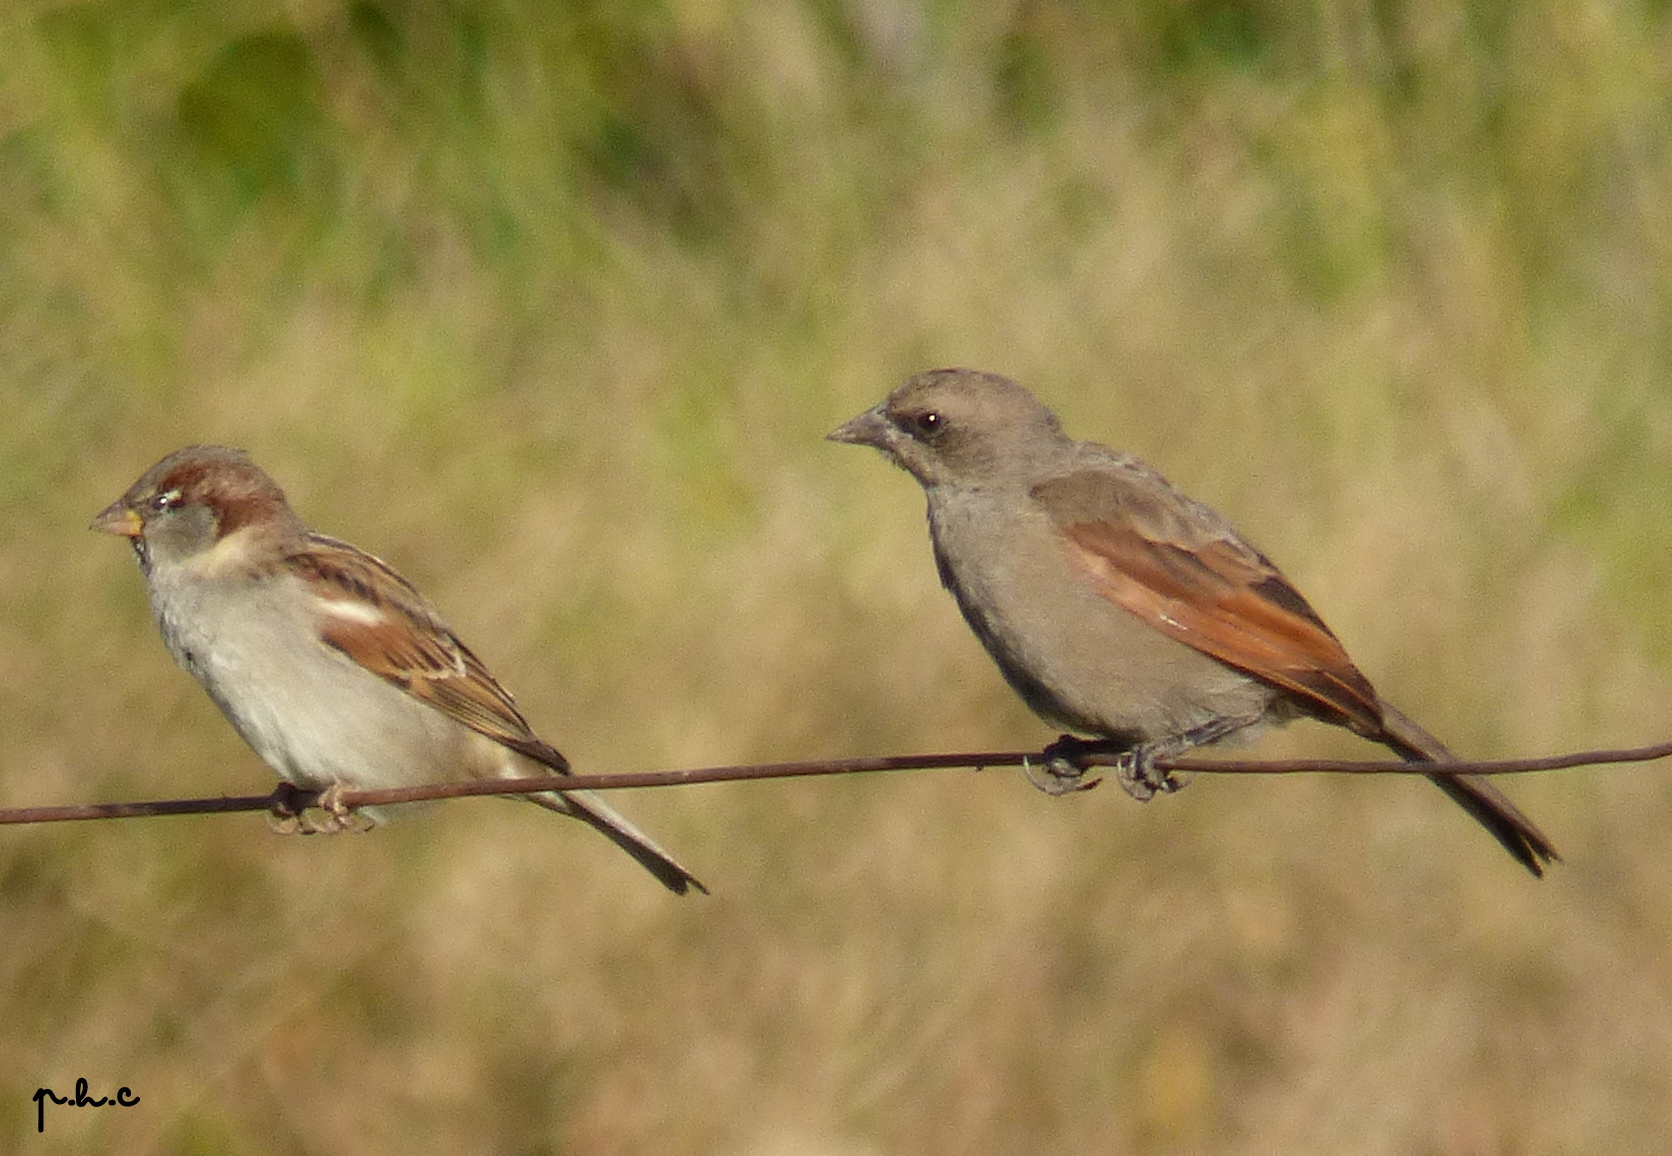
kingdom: Animalia
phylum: Chordata
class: Aves
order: Passeriformes
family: Icteridae
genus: Agelaioides
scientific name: Agelaioides badius
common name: Baywing
